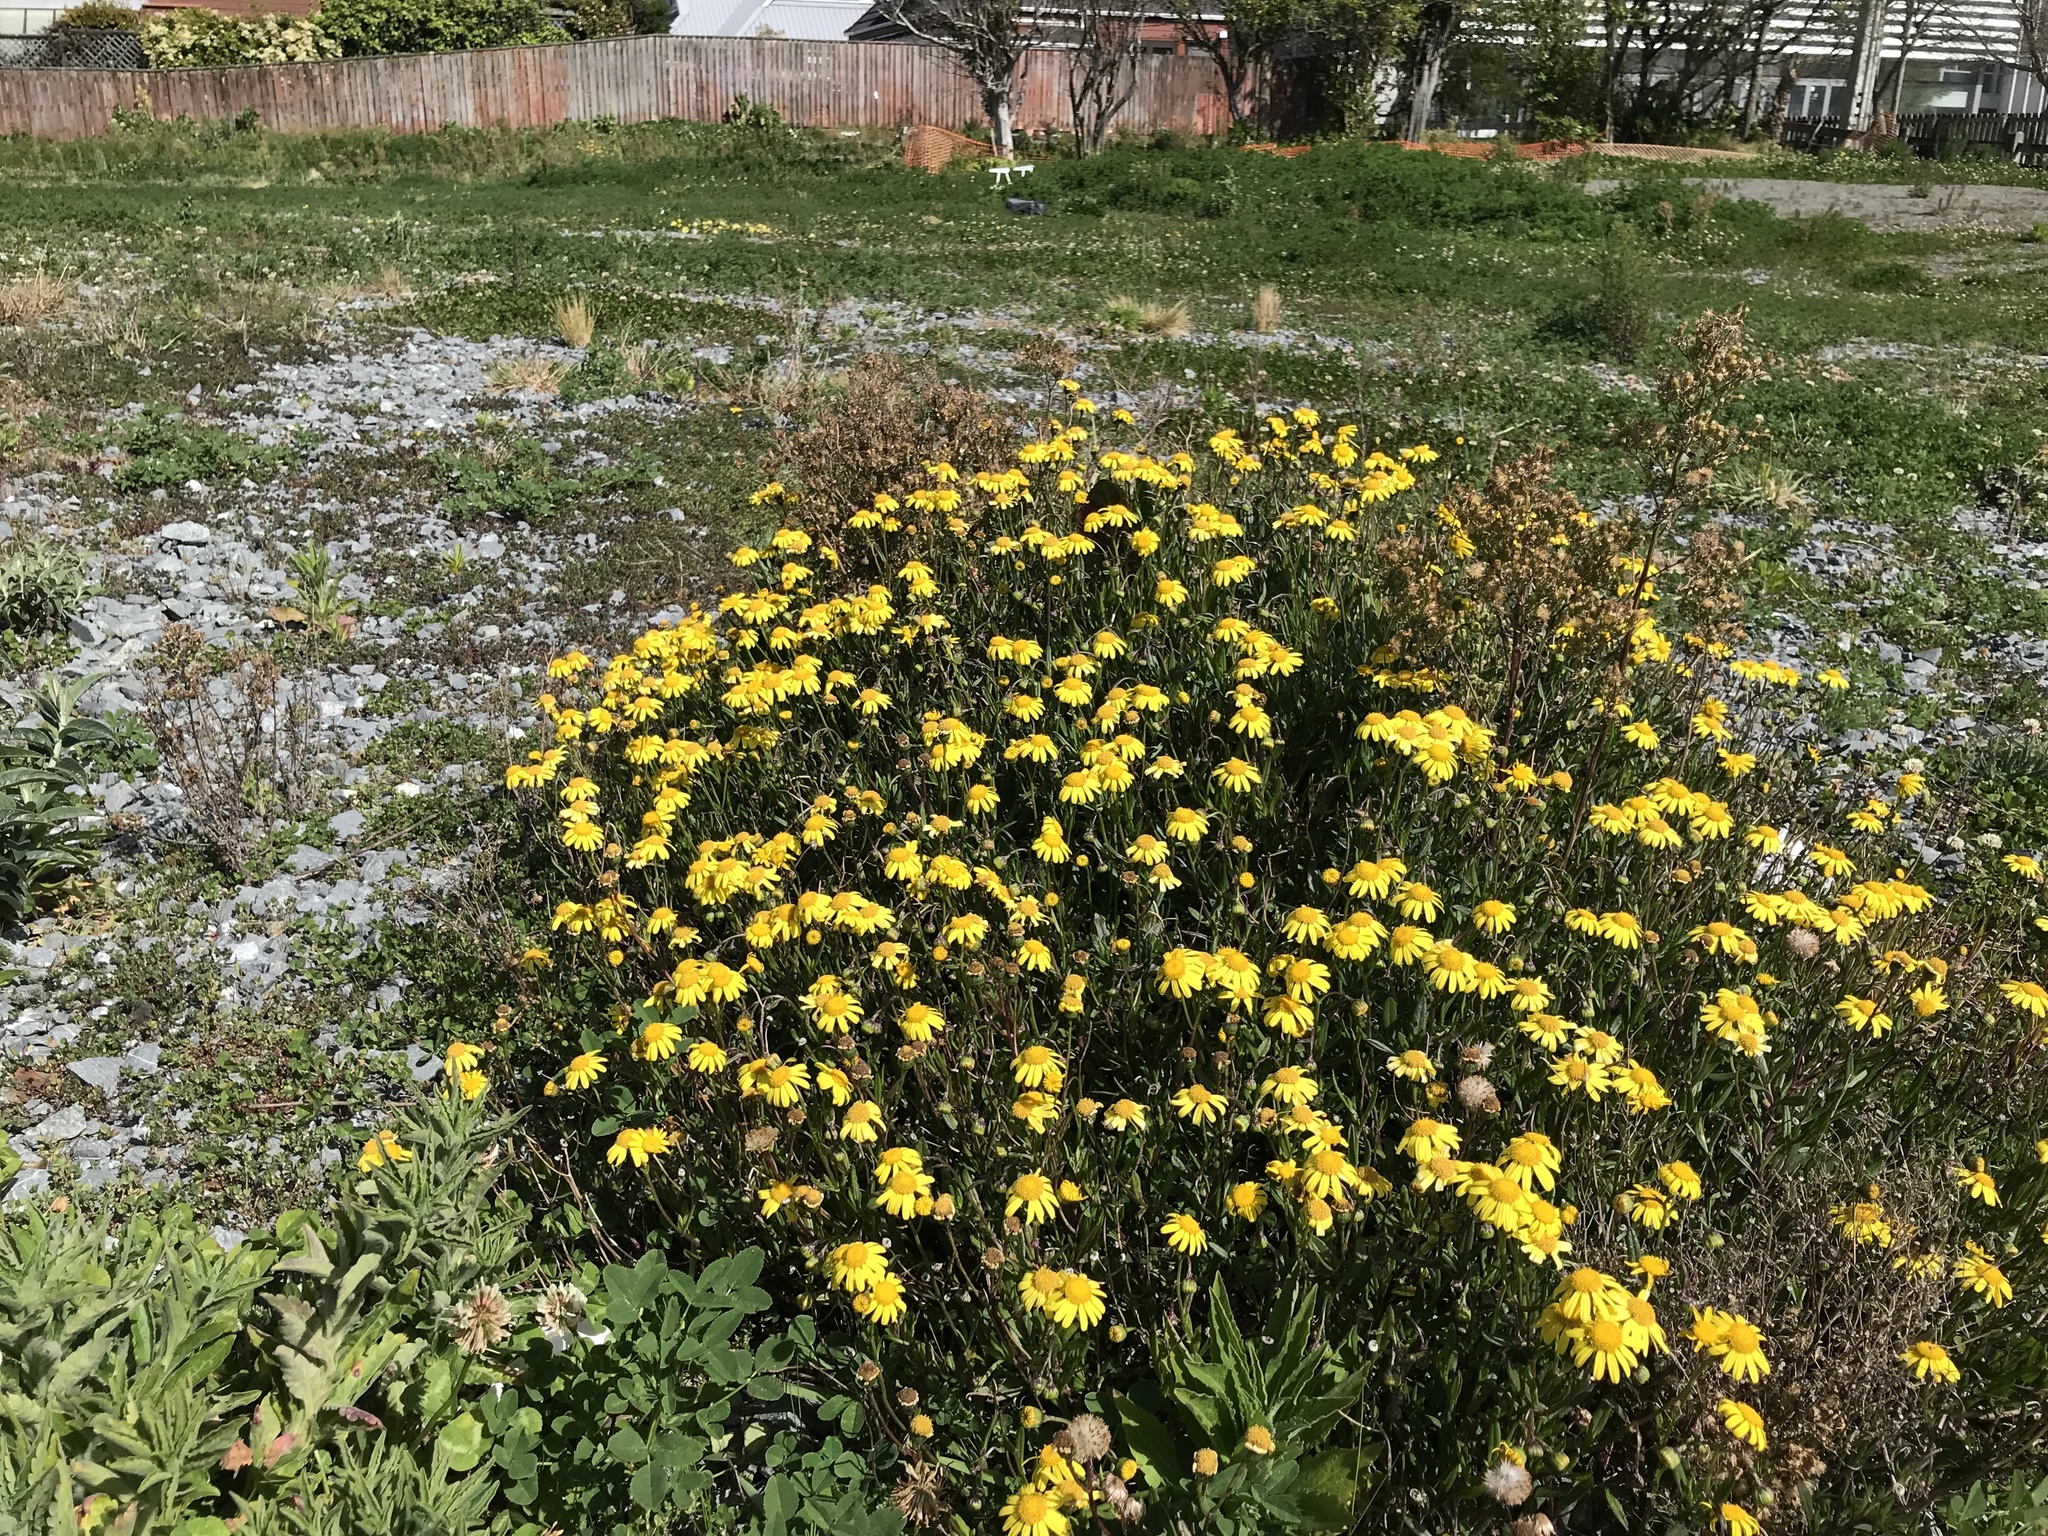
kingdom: Plantae
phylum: Tracheophyta
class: Magnoliopsida
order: Asterales
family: Asteraceae
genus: Senecio
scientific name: Senecio skirrhodon
